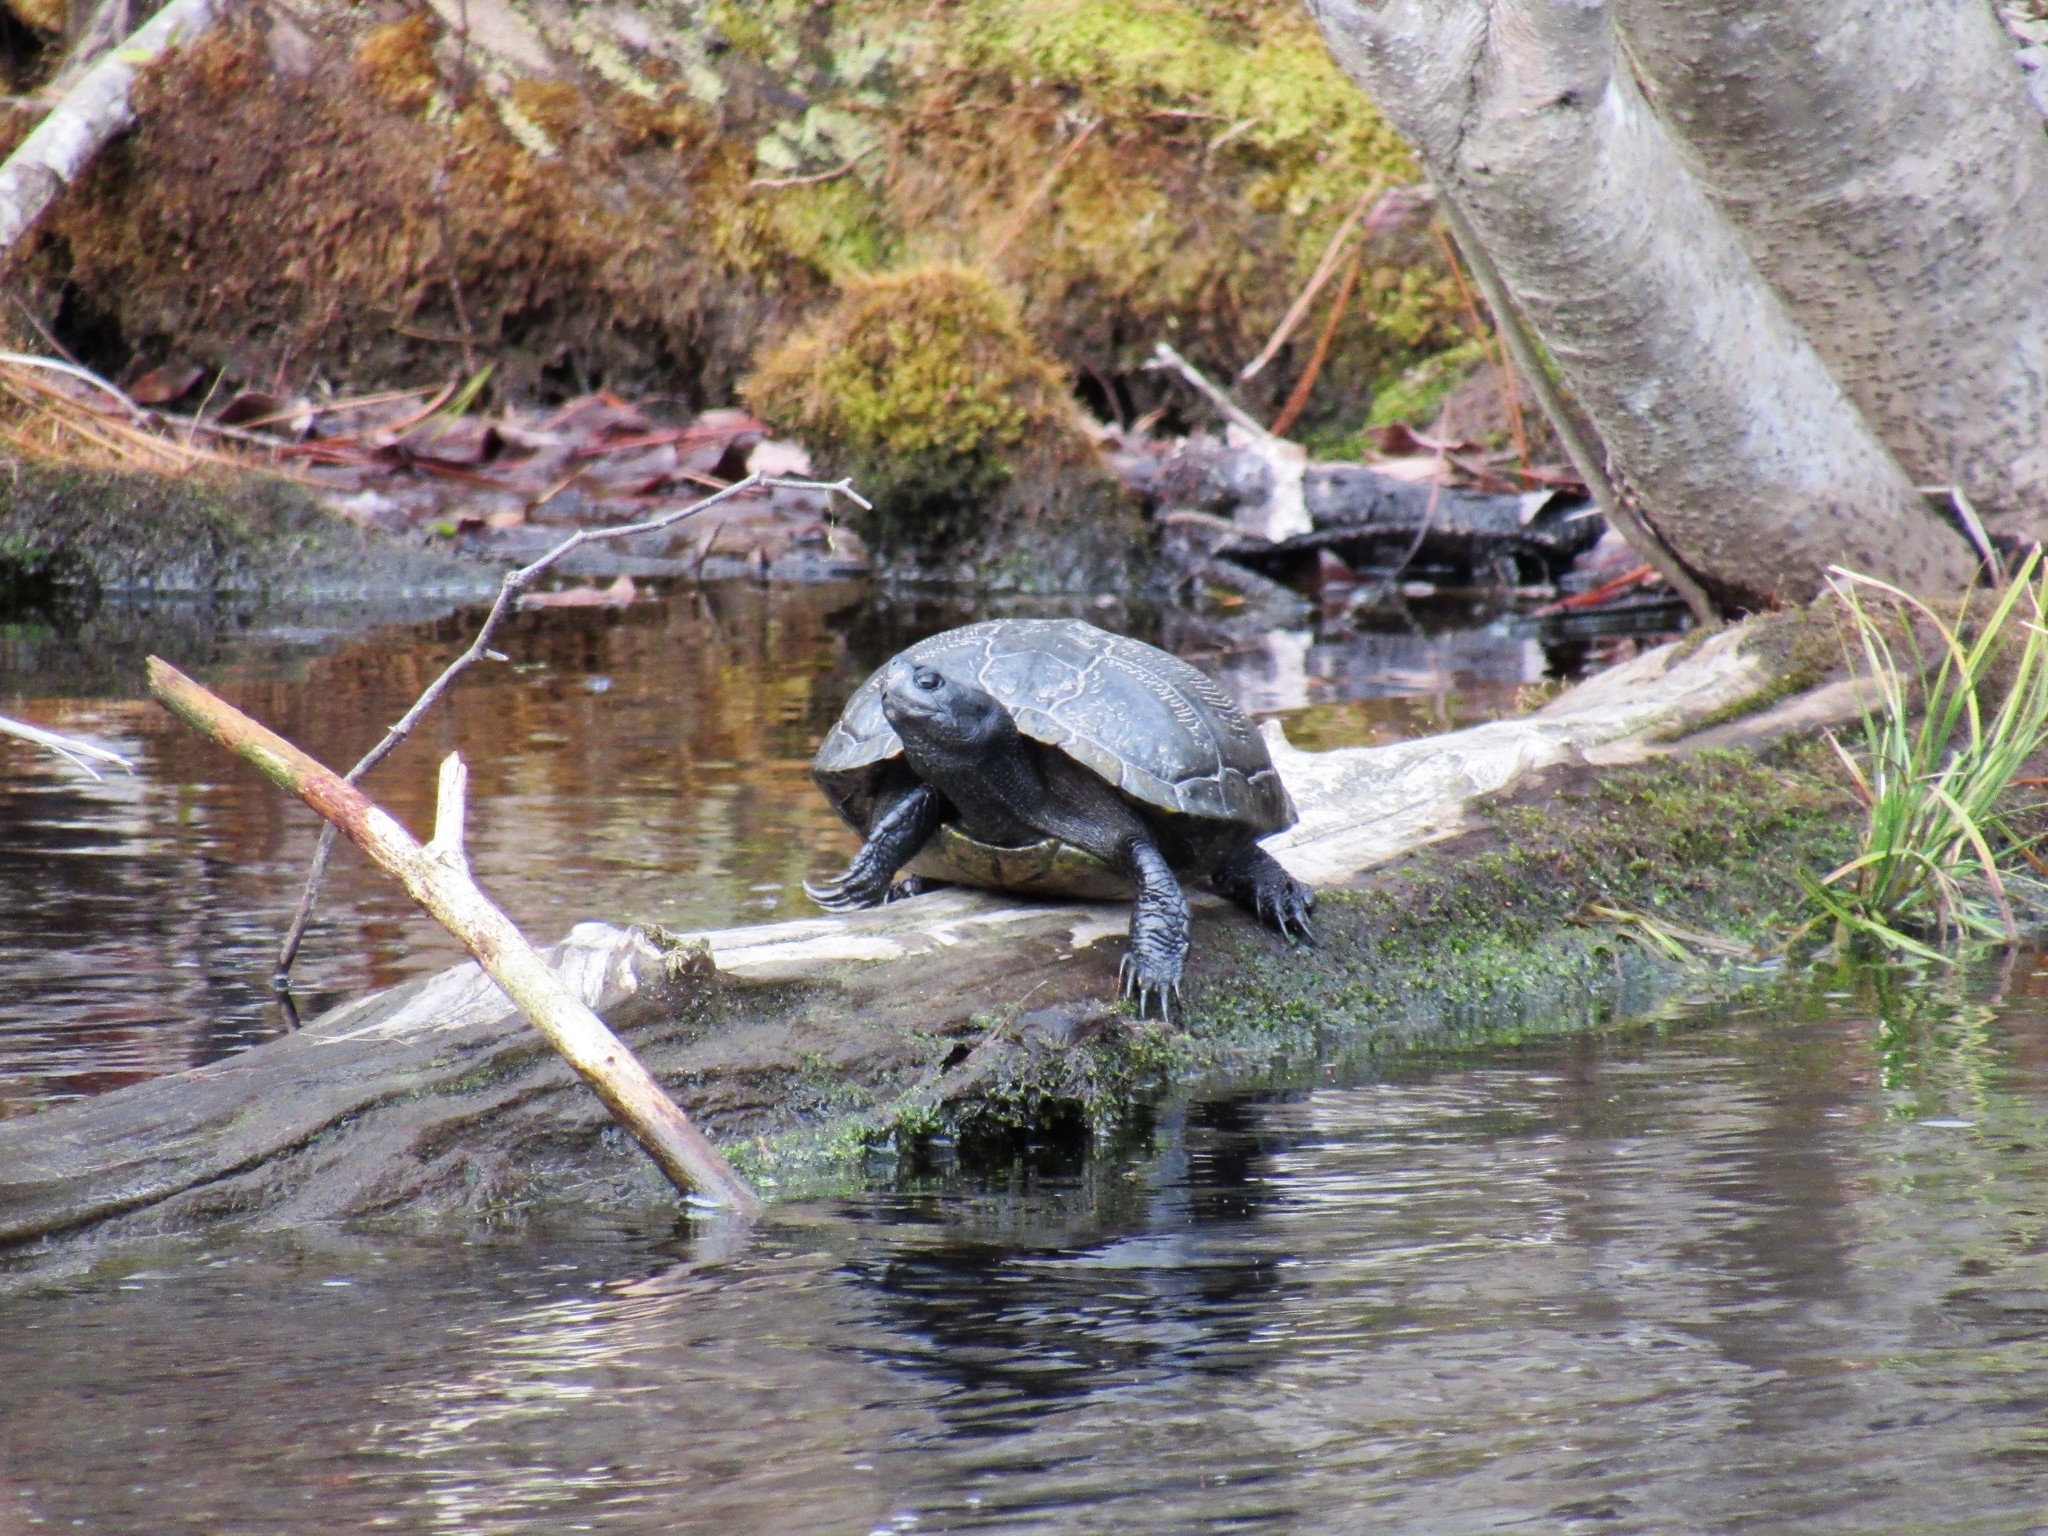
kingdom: Animalia
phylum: Chordata
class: Testudines
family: Emydidae
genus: Trachemys
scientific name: Trachemys scripta
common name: Slider
